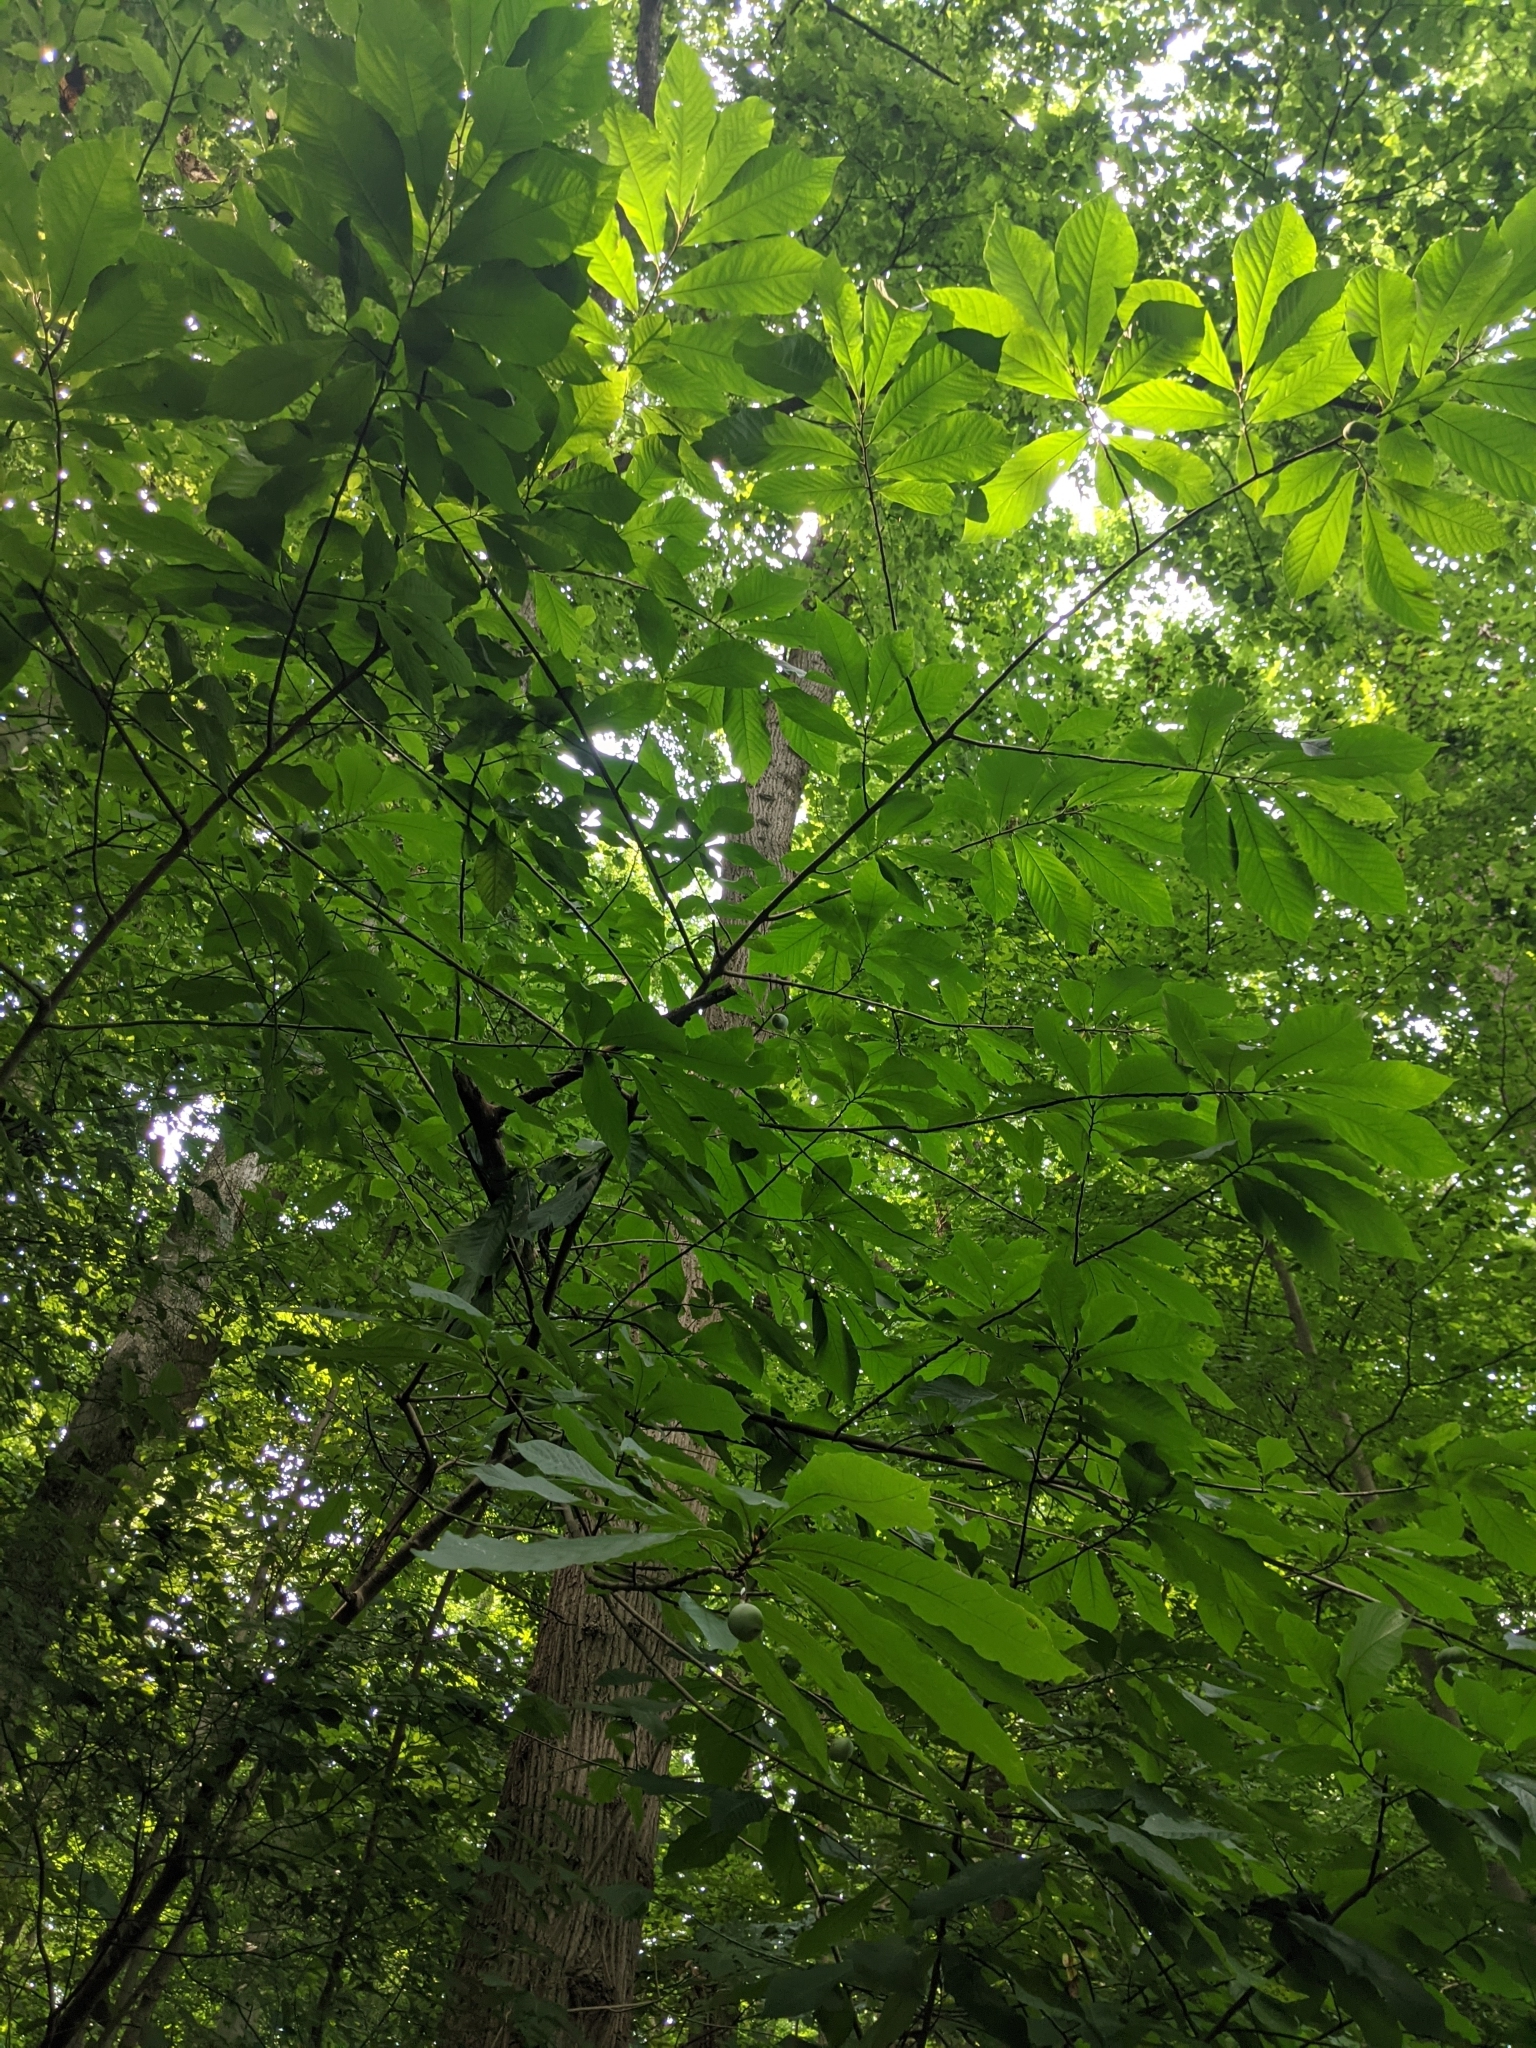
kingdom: Plantae
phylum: Tracheophyta
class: Magnoliopsida
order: Magnoliales
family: Annonaceae
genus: Asimina
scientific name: Asimina triloba
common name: Dog-banana
